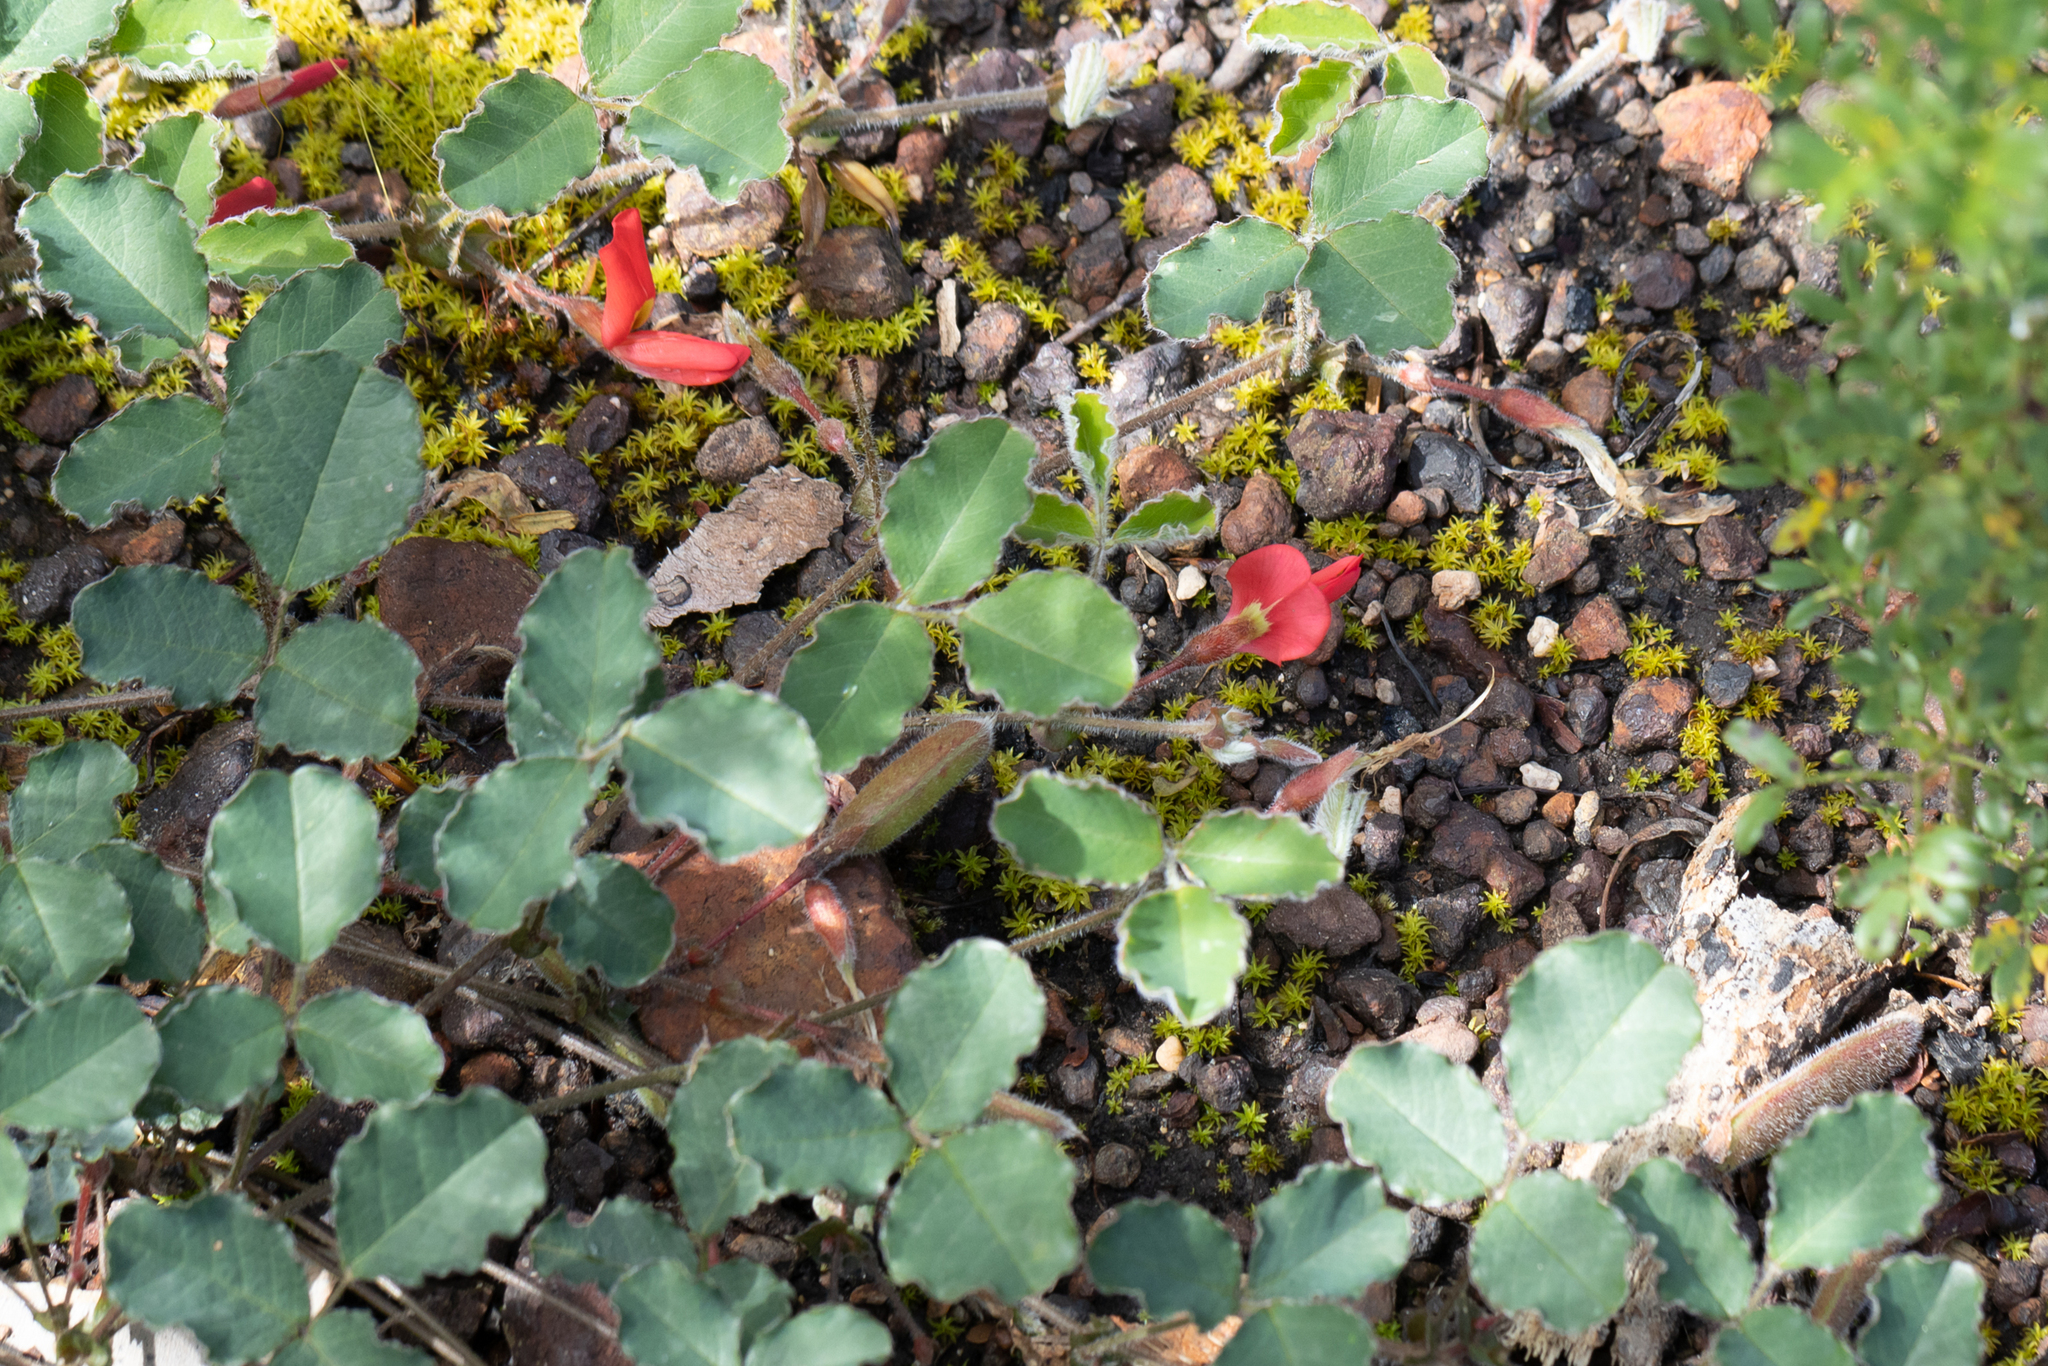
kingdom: Plantae
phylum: Tracheophyta
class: Magnoliopsida
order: Fabales
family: Fabaceae
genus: Kennedia
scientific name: Kennedia prostrata
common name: Running-postman
